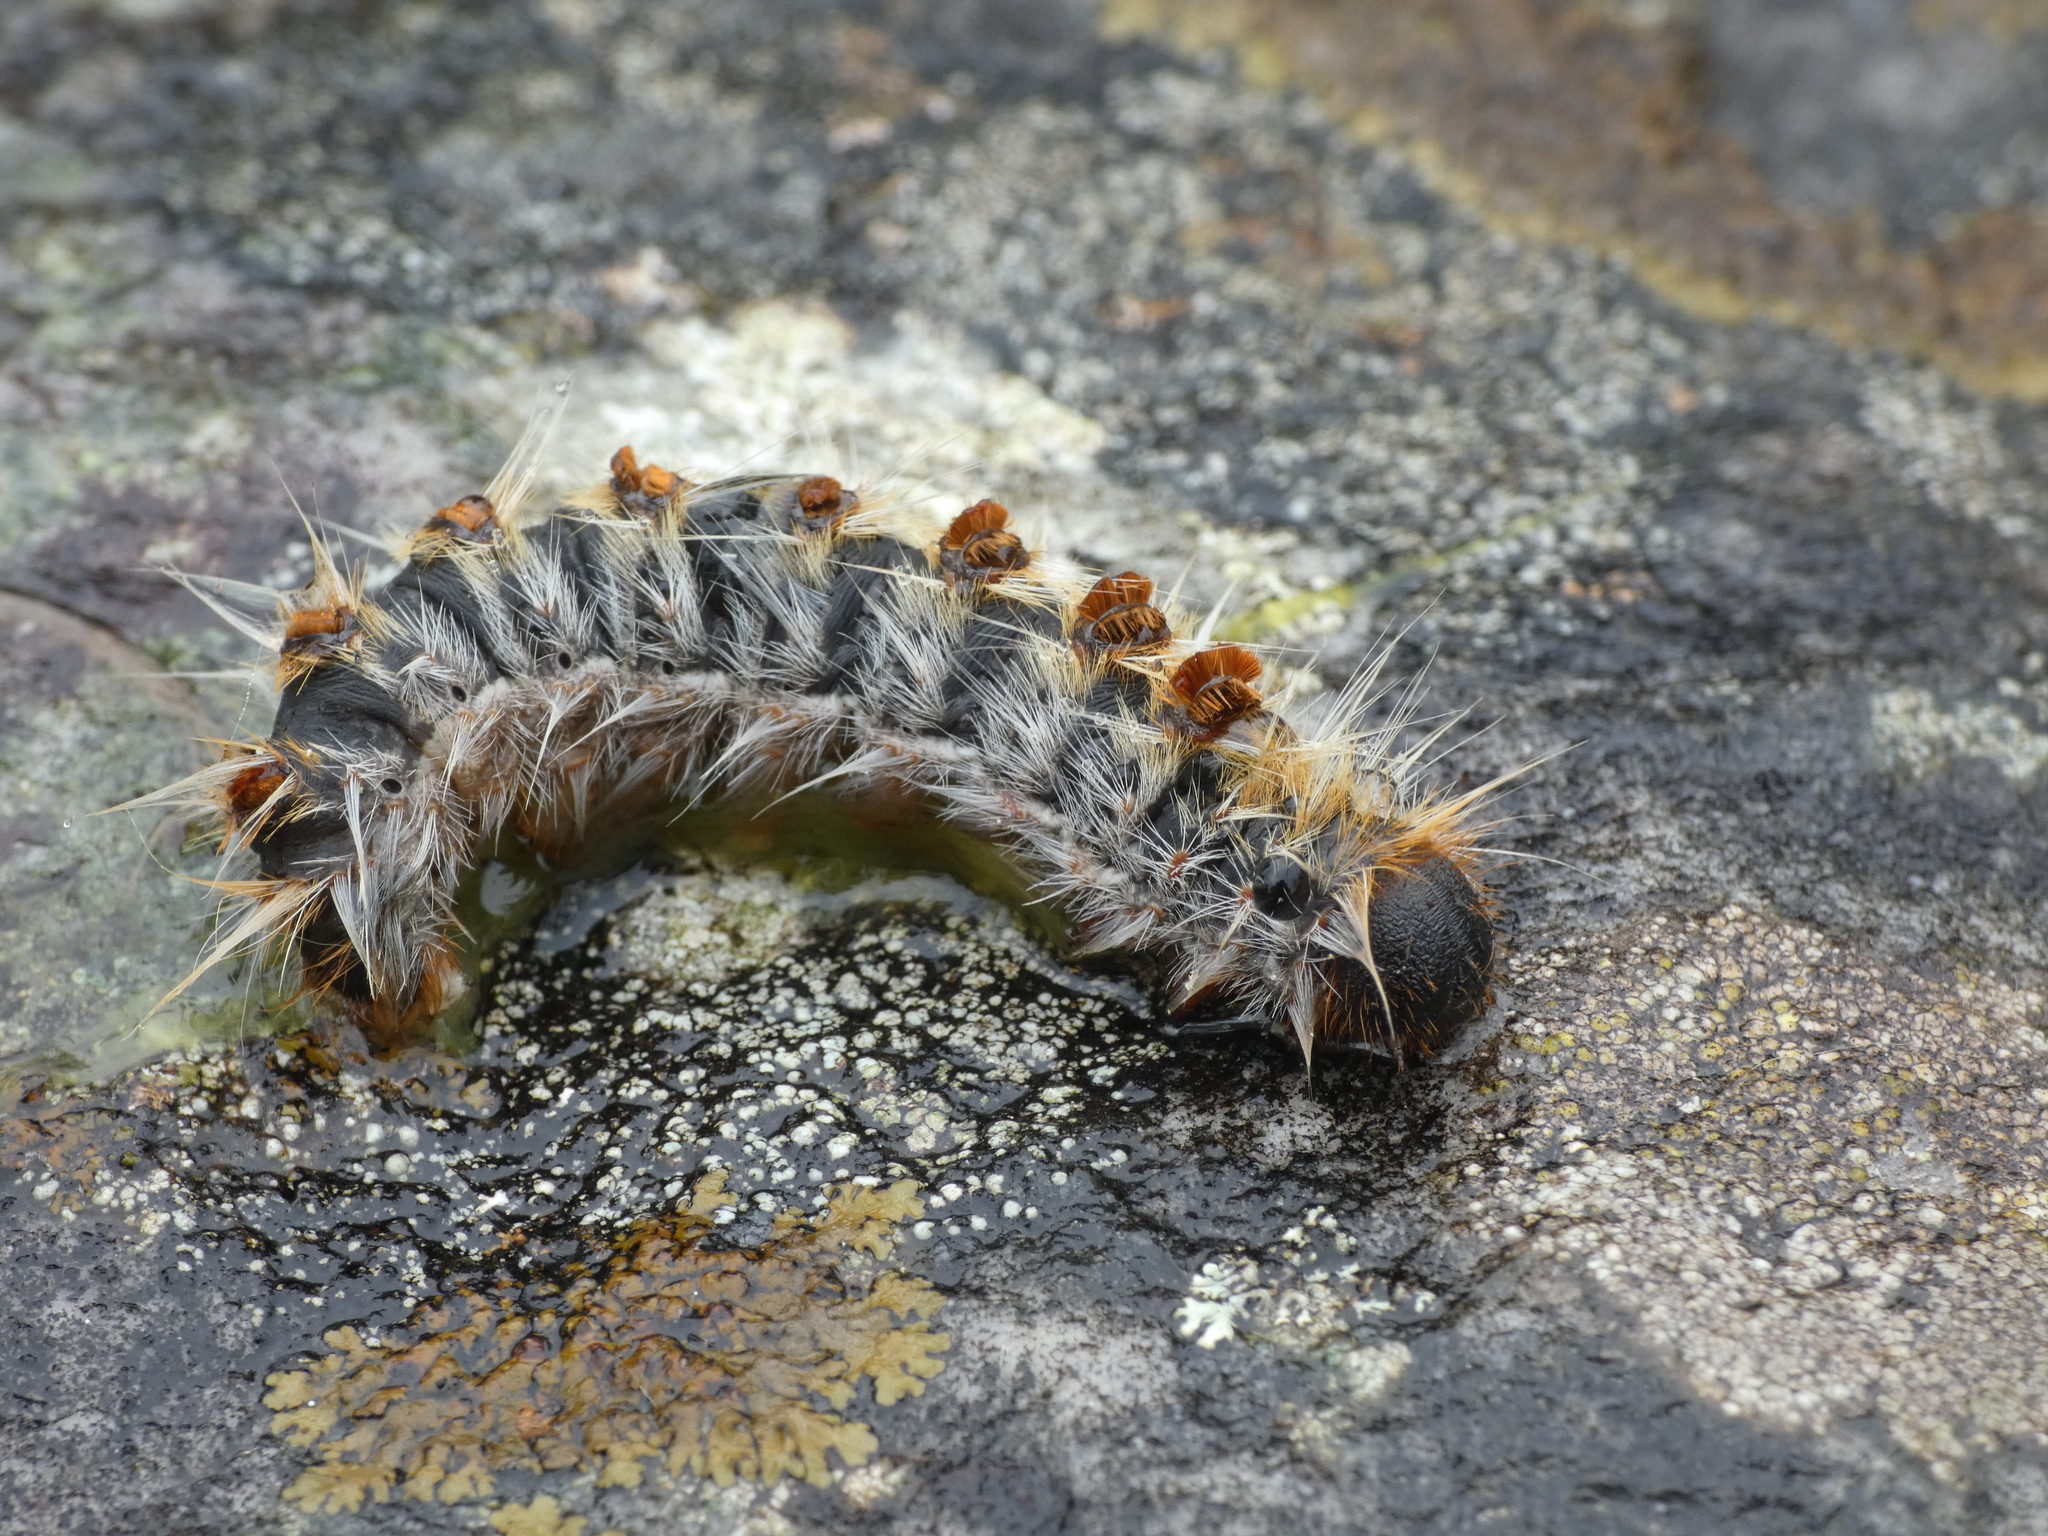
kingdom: Animalia
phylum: Arthropoda
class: Insecta
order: Lepidoptera
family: Notodontidae
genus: Thaumetopoea
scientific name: Thaumetopoea pityocampa
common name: Pine processionary
